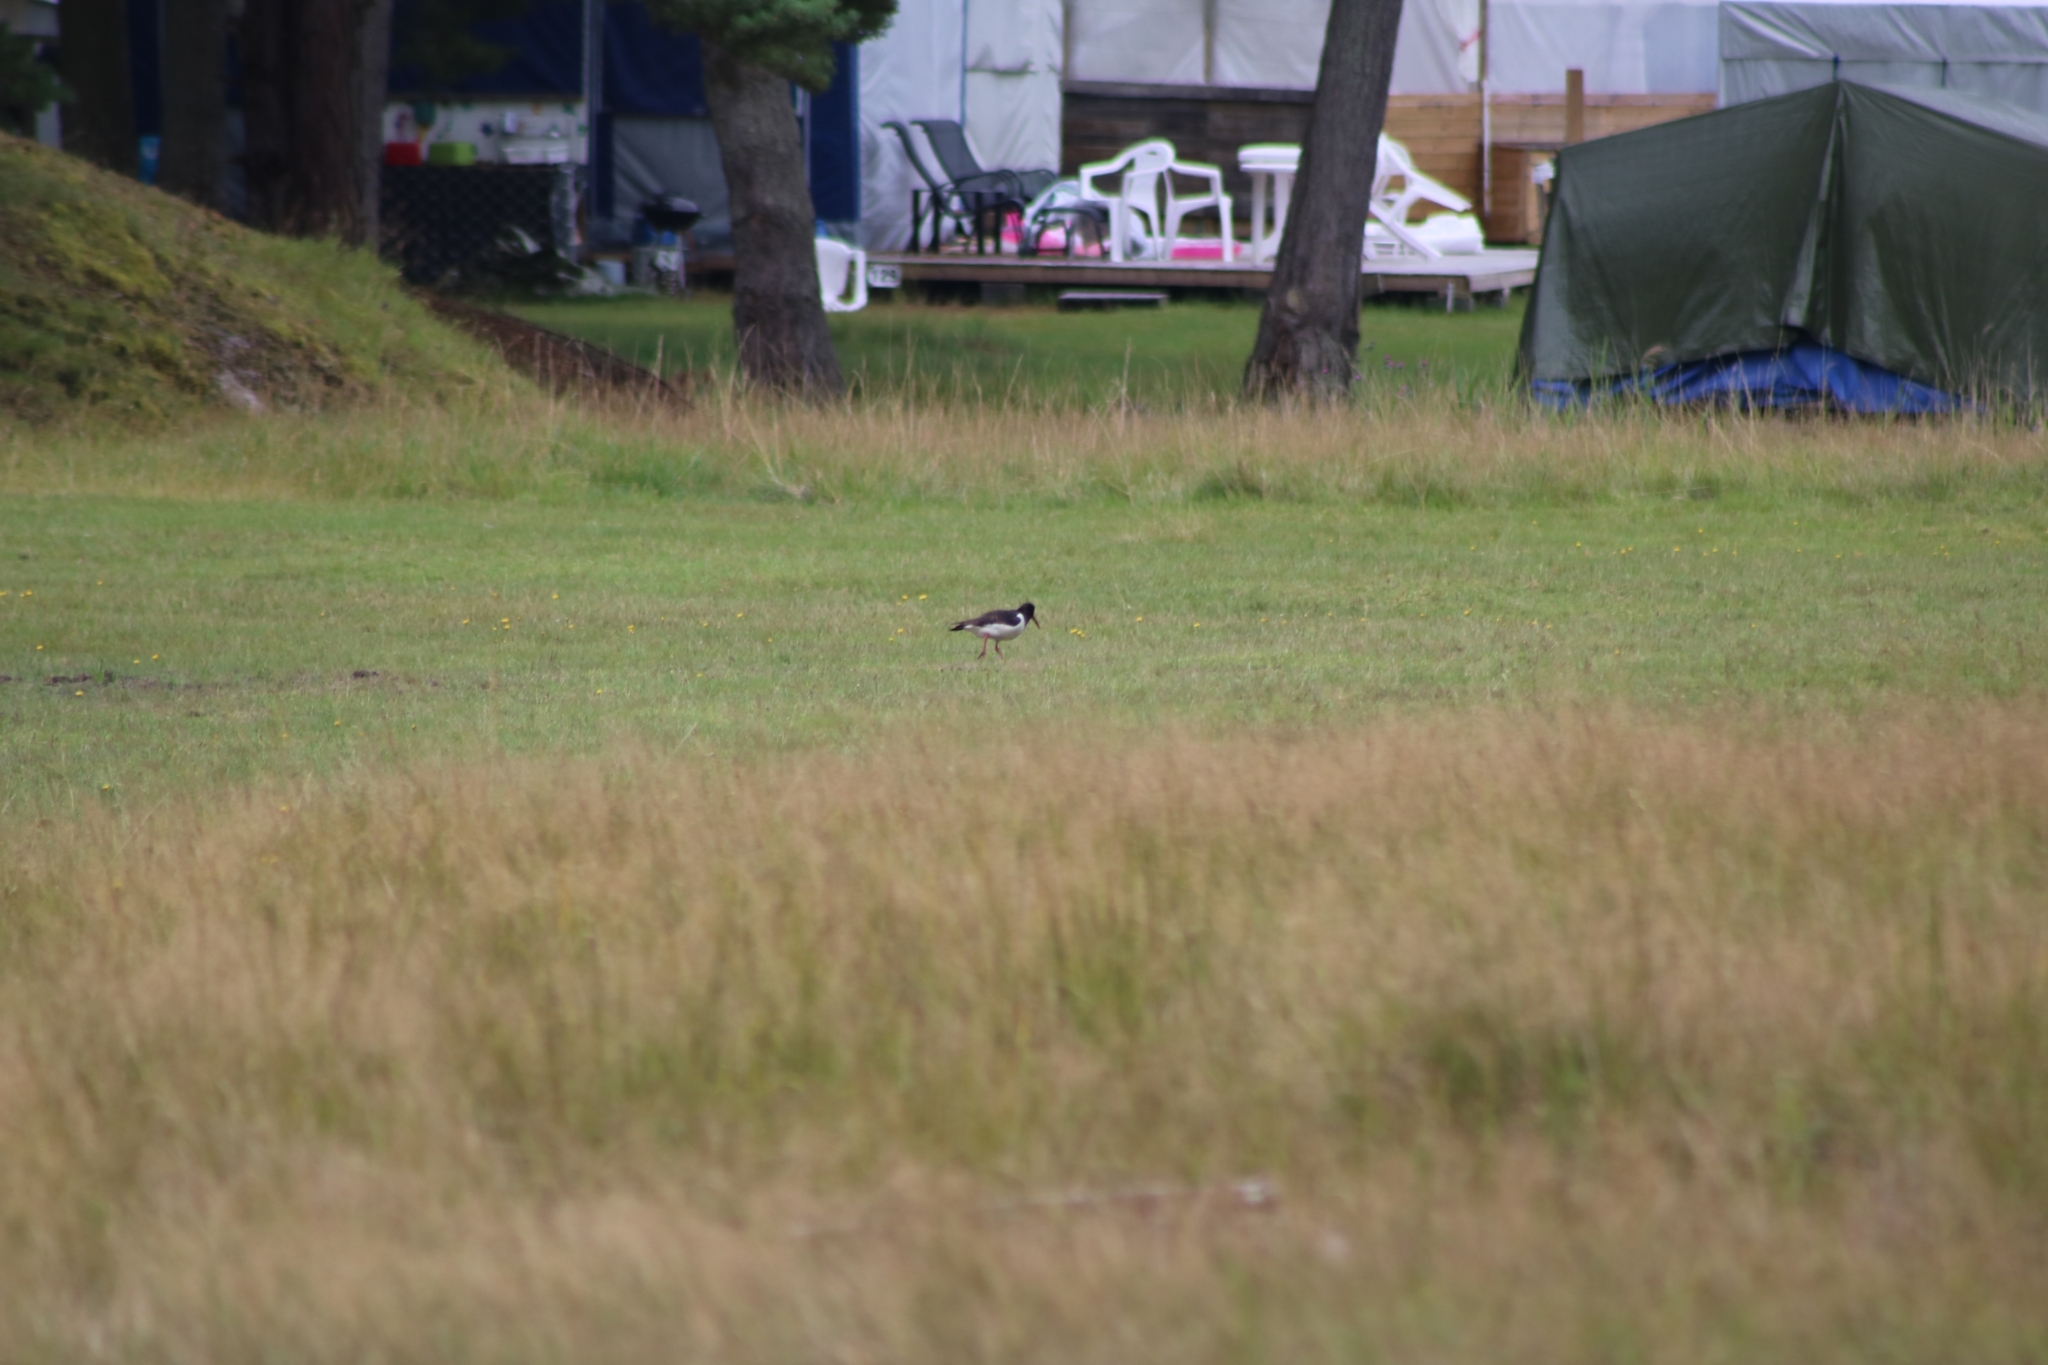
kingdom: Animalia
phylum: Chordata
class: Aves
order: Charadriiformes
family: Haematopodidae
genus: Haematopus
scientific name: Haematopus ostralegus
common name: Eurasian oystercatcher
